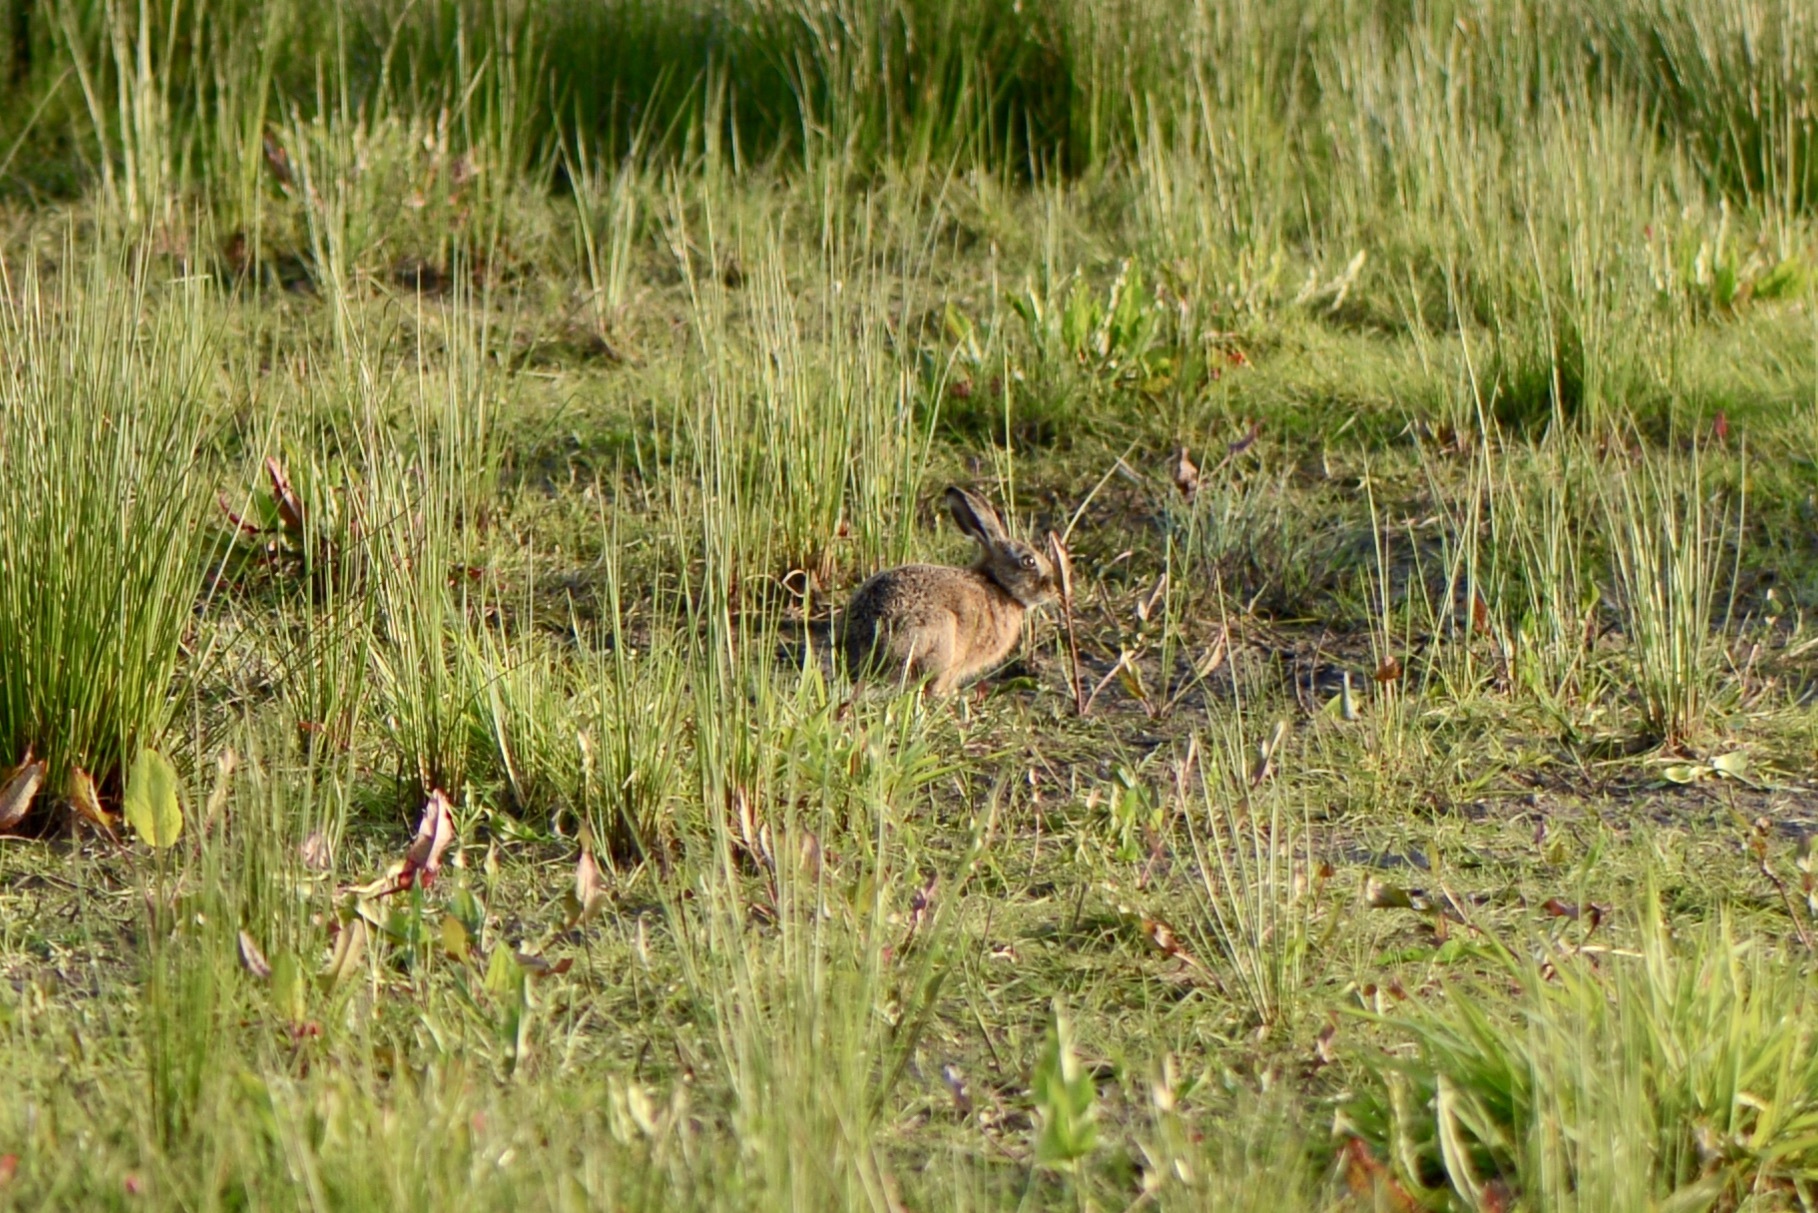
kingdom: Animalia
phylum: Chordata
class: Mammalia
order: Lagomorpha
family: Leporidae
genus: Lepus
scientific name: Lepus europaeus
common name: European hare
